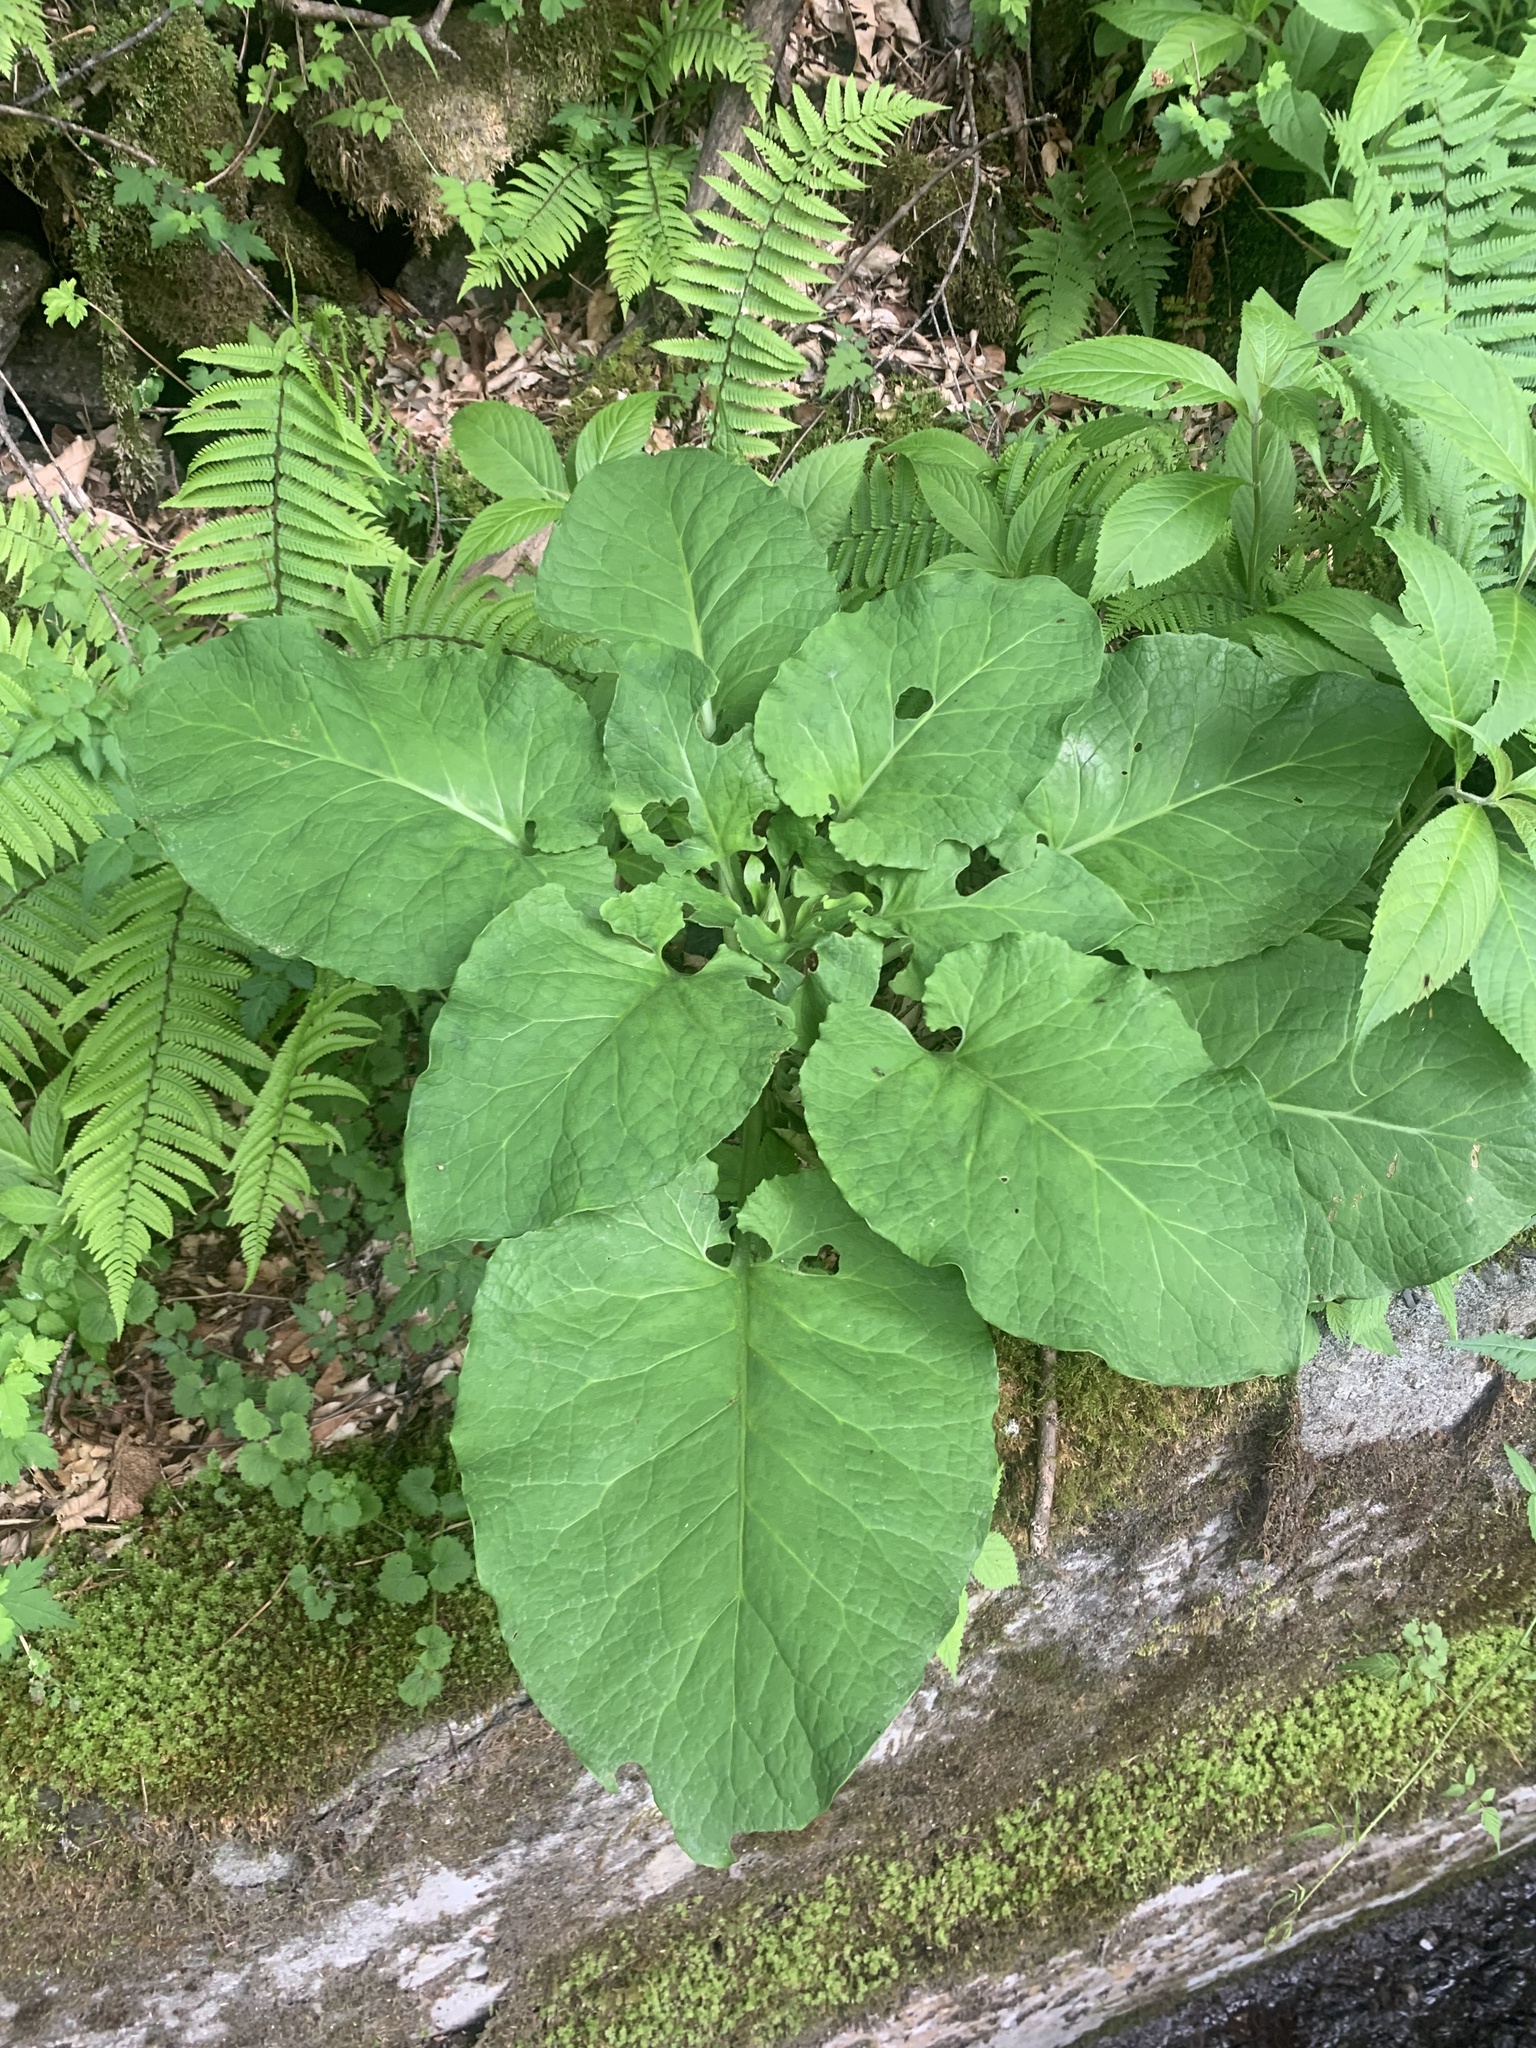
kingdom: Plantae
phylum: Tracheophyta
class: Liliopsida
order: Liliales
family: Liliaceae
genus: Cardiocrinum
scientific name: Cardiocrinum cordatum
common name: Lily
